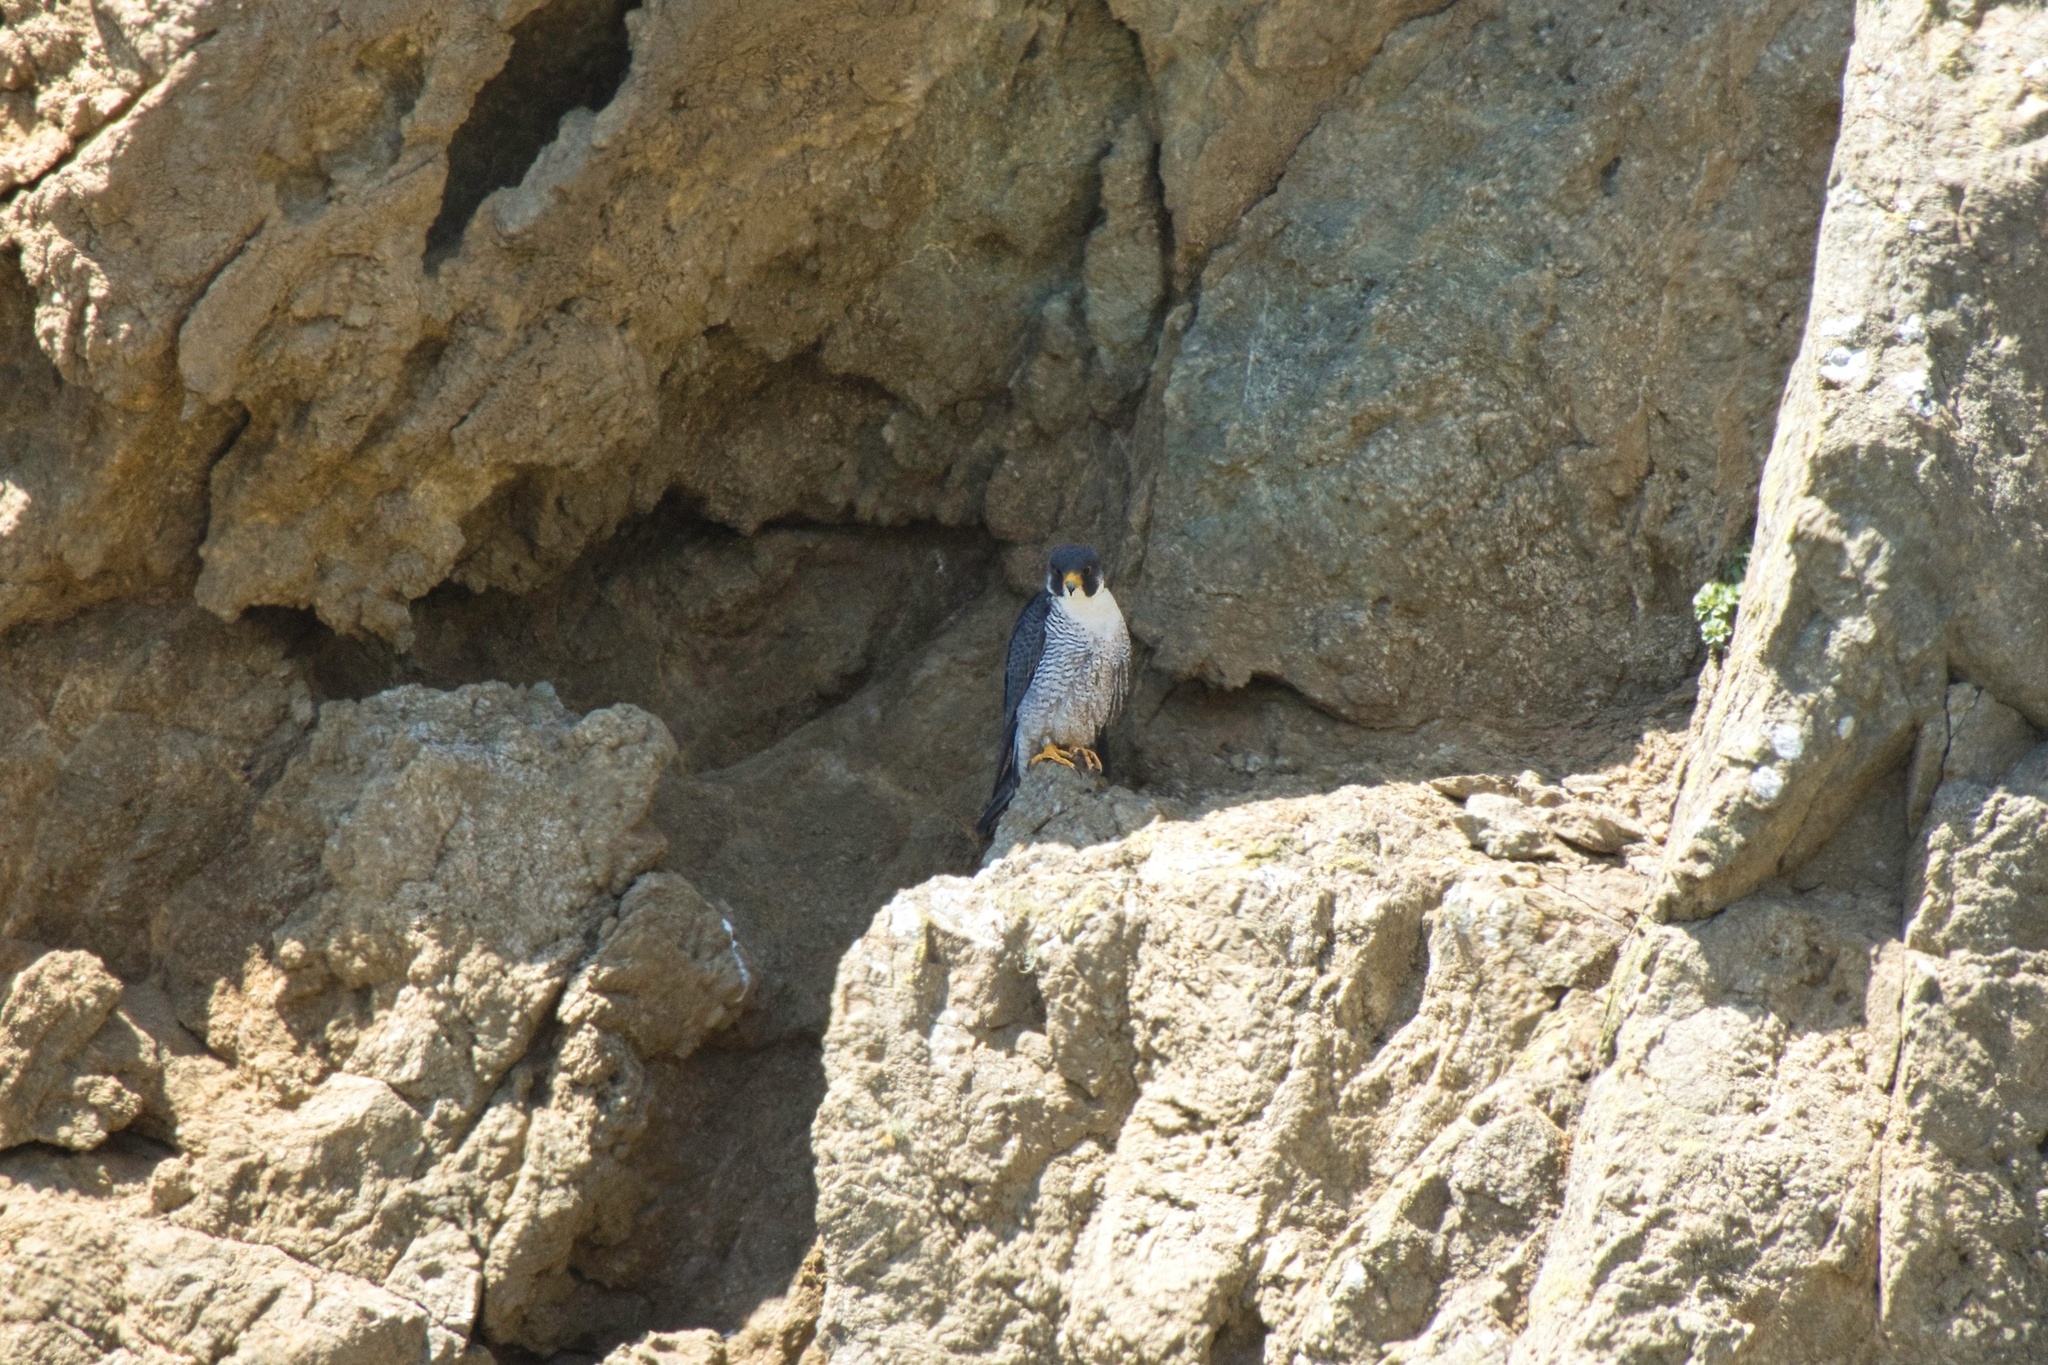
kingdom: Animalia
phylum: Chordata
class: Aves
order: Falconiformes
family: Falconidae
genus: Falco
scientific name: Falco peregrinus
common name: Peregrine falcon
